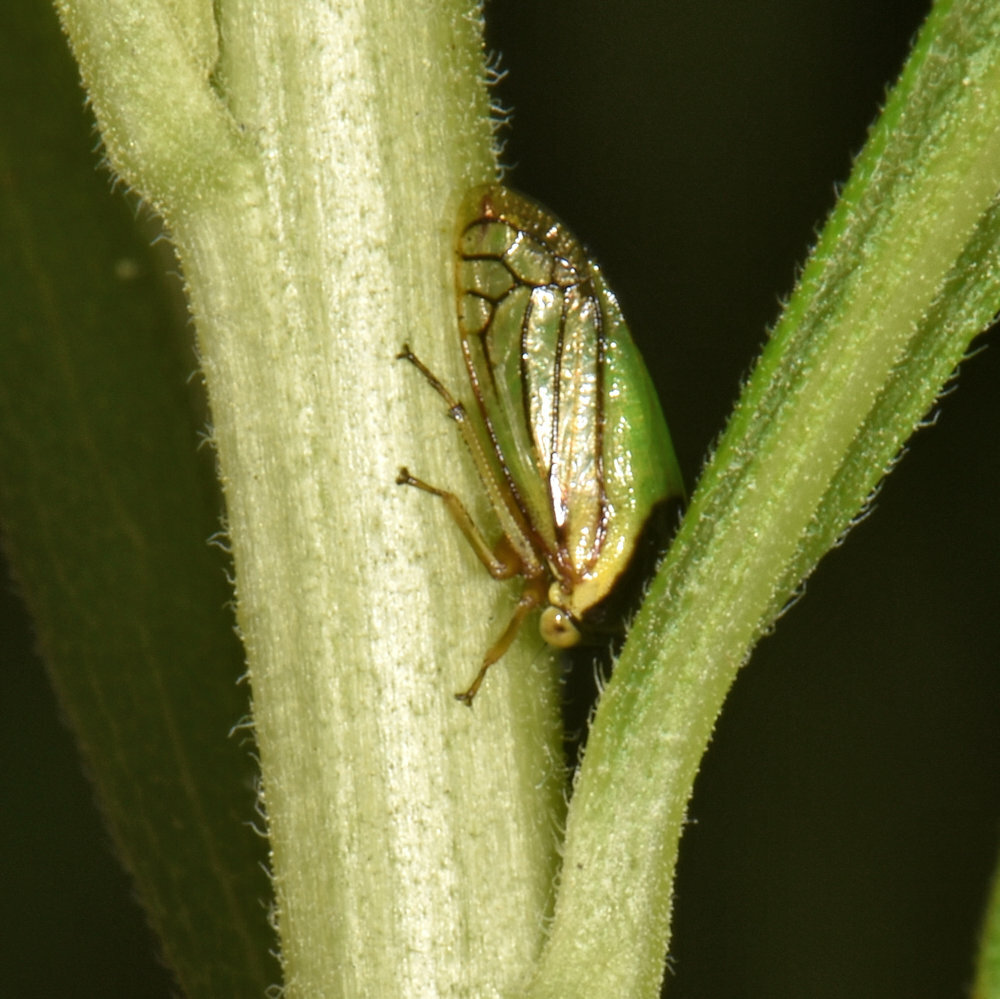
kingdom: Animalia
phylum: Arthropoda
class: Insecta
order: Hemiptera
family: Membracidae
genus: Acutalis
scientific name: Acutalis tartarea
